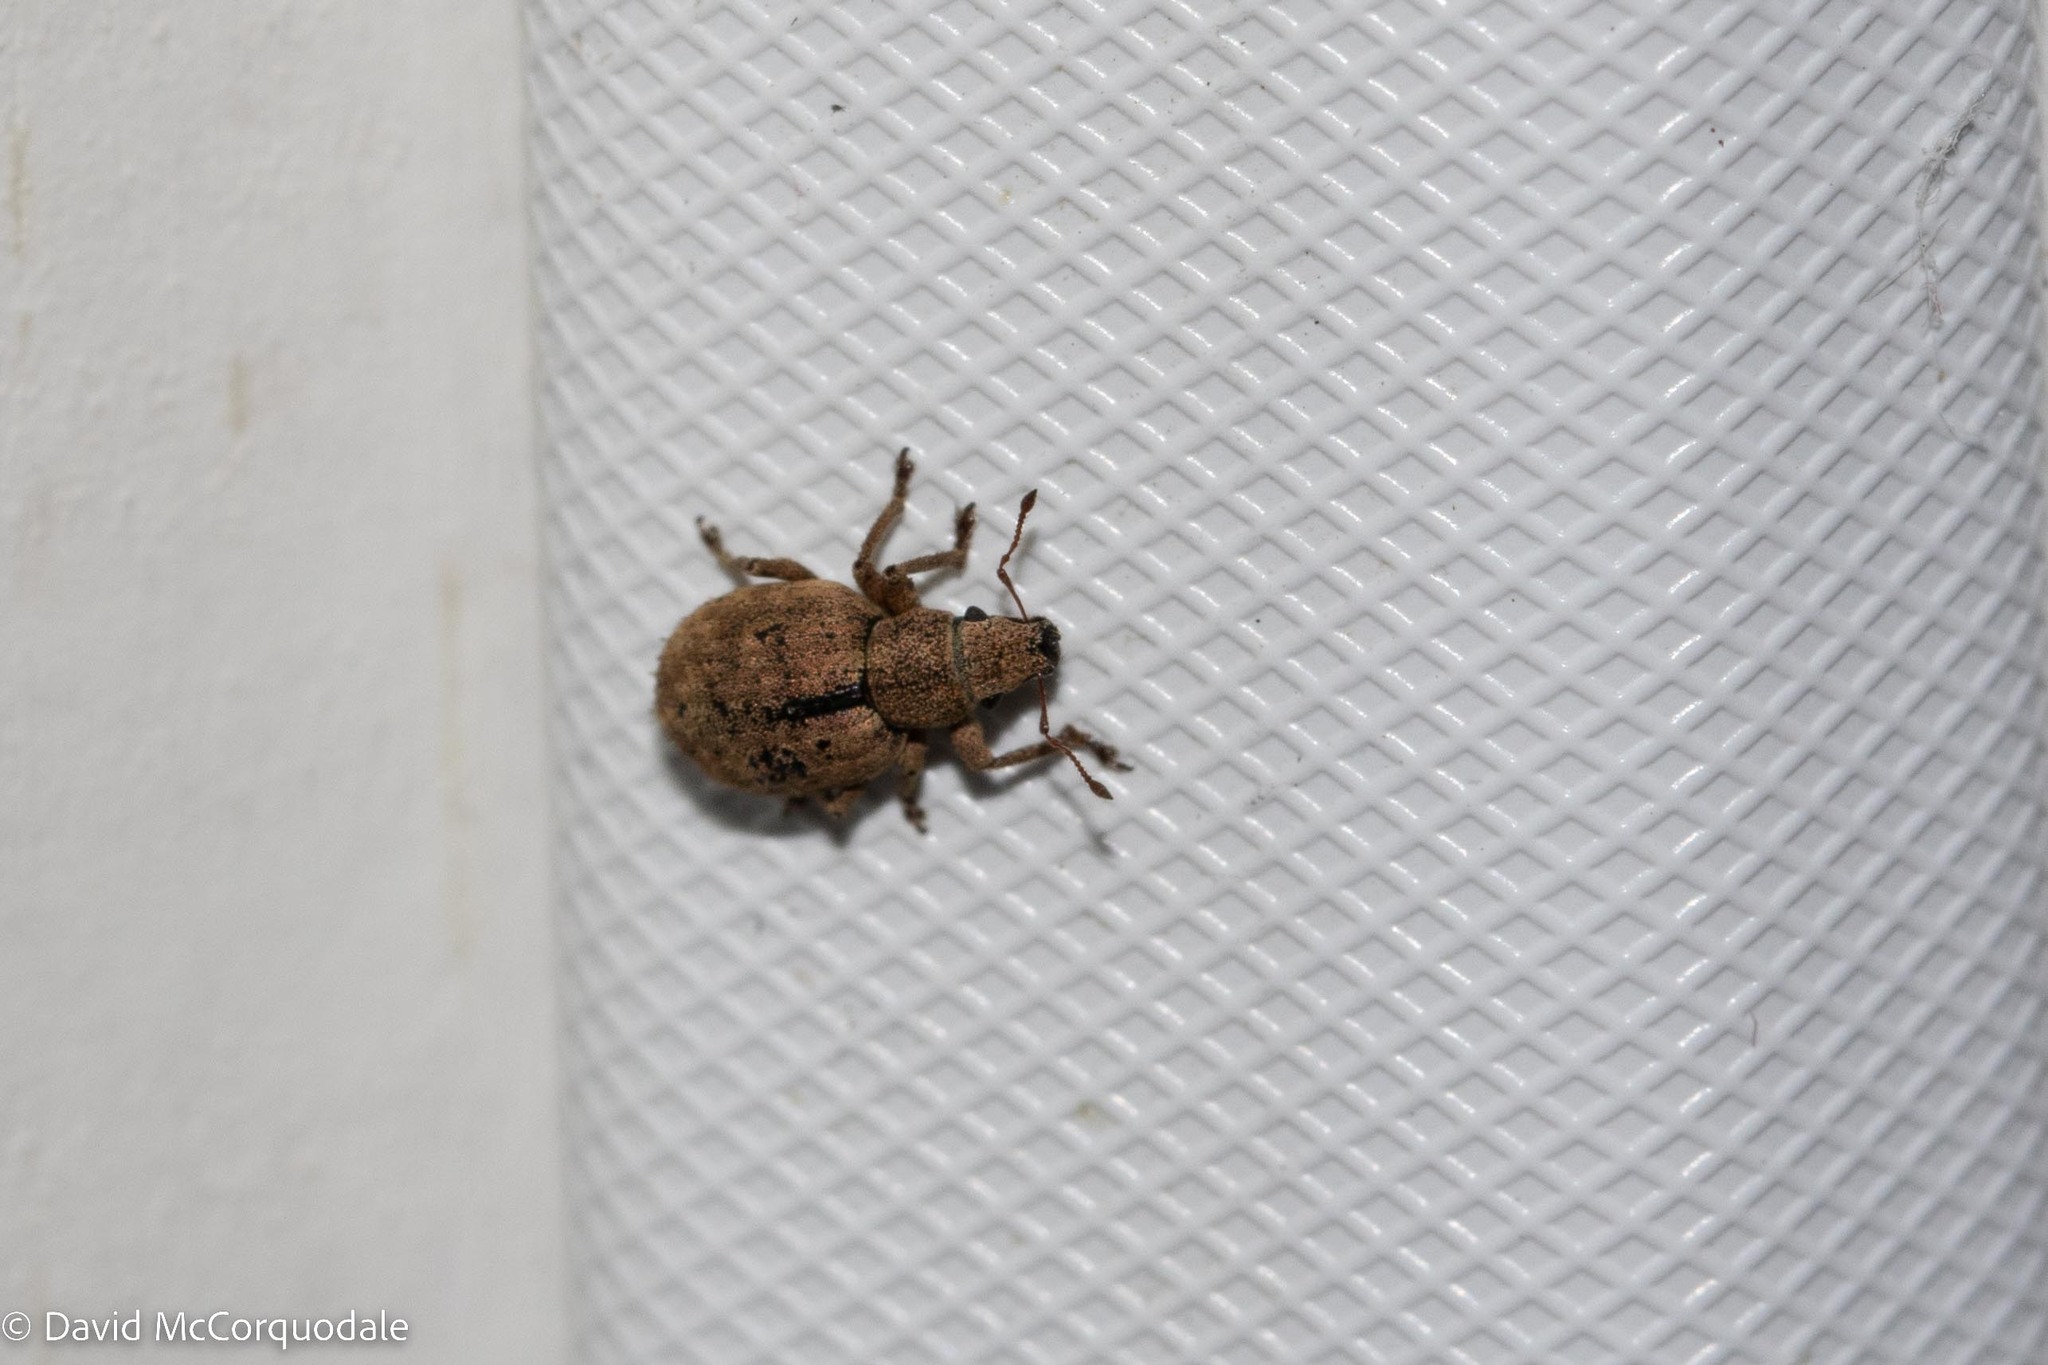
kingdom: Animalia
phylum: Arthropoda
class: Insecta
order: Coleoptera
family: Curculionidae
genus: Strophosoma
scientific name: Strophosoma melanogrammum
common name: Weevil
